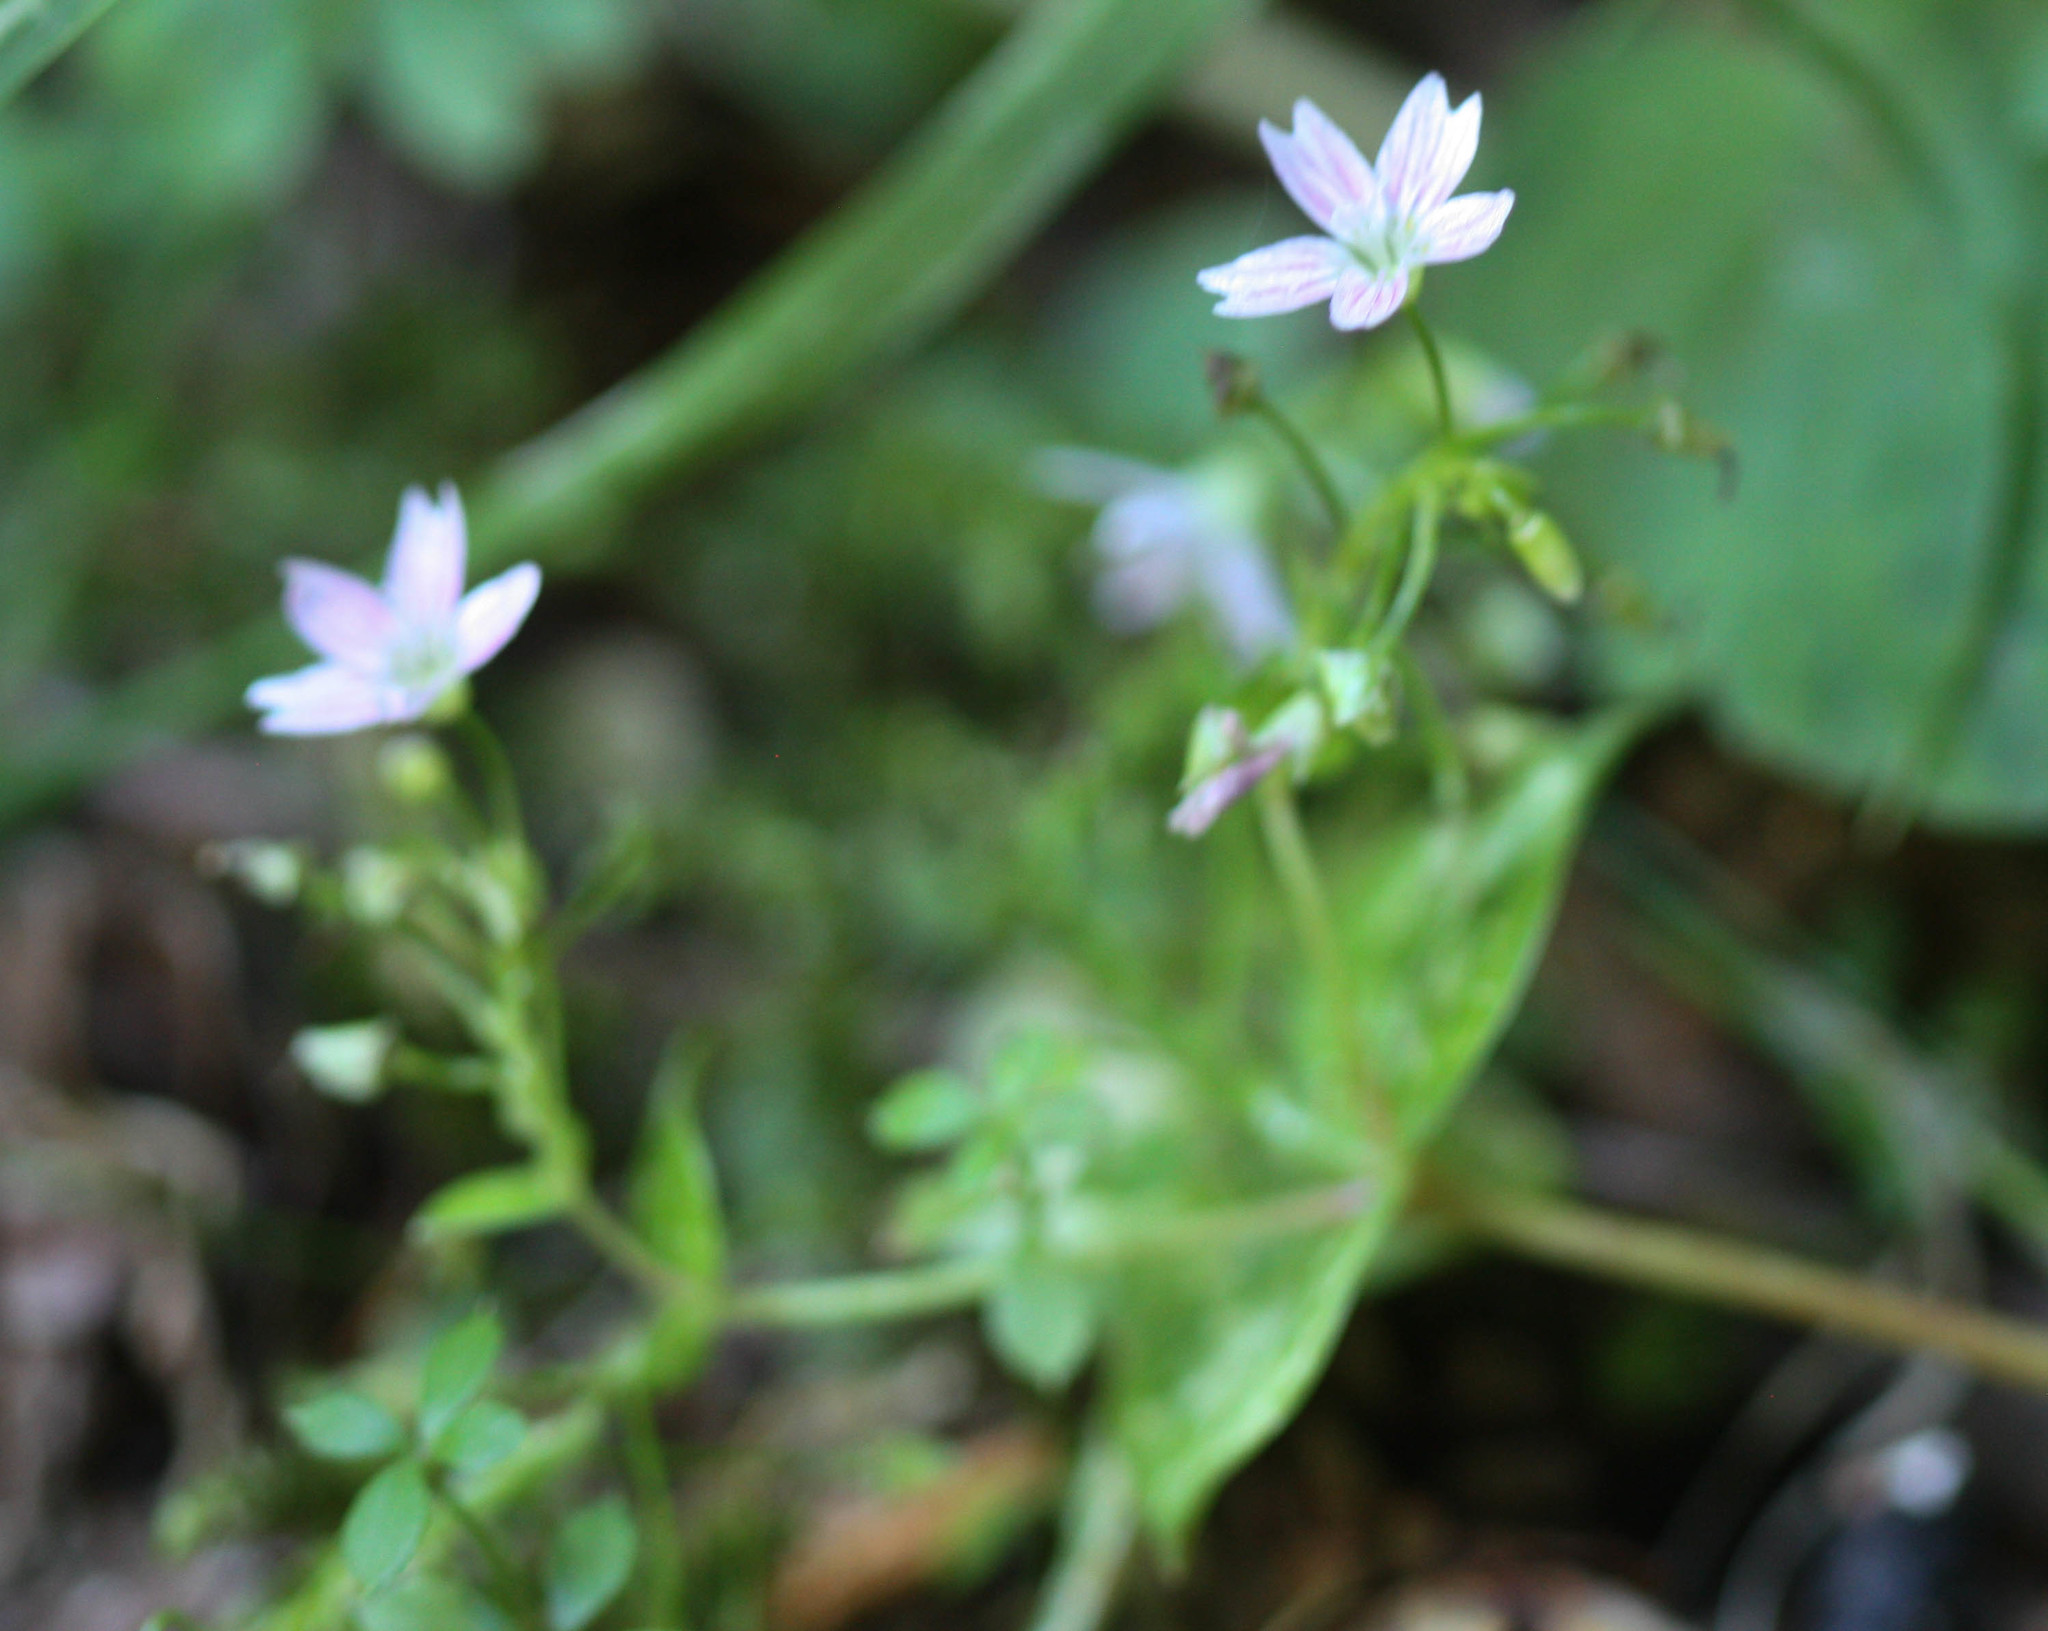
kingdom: Plantae
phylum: Tracheophyta
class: Magnoliopsida
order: Caryophyllales
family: Montiaceae
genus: Claytonia
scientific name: Claytonia sibirica
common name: Pink purslane
